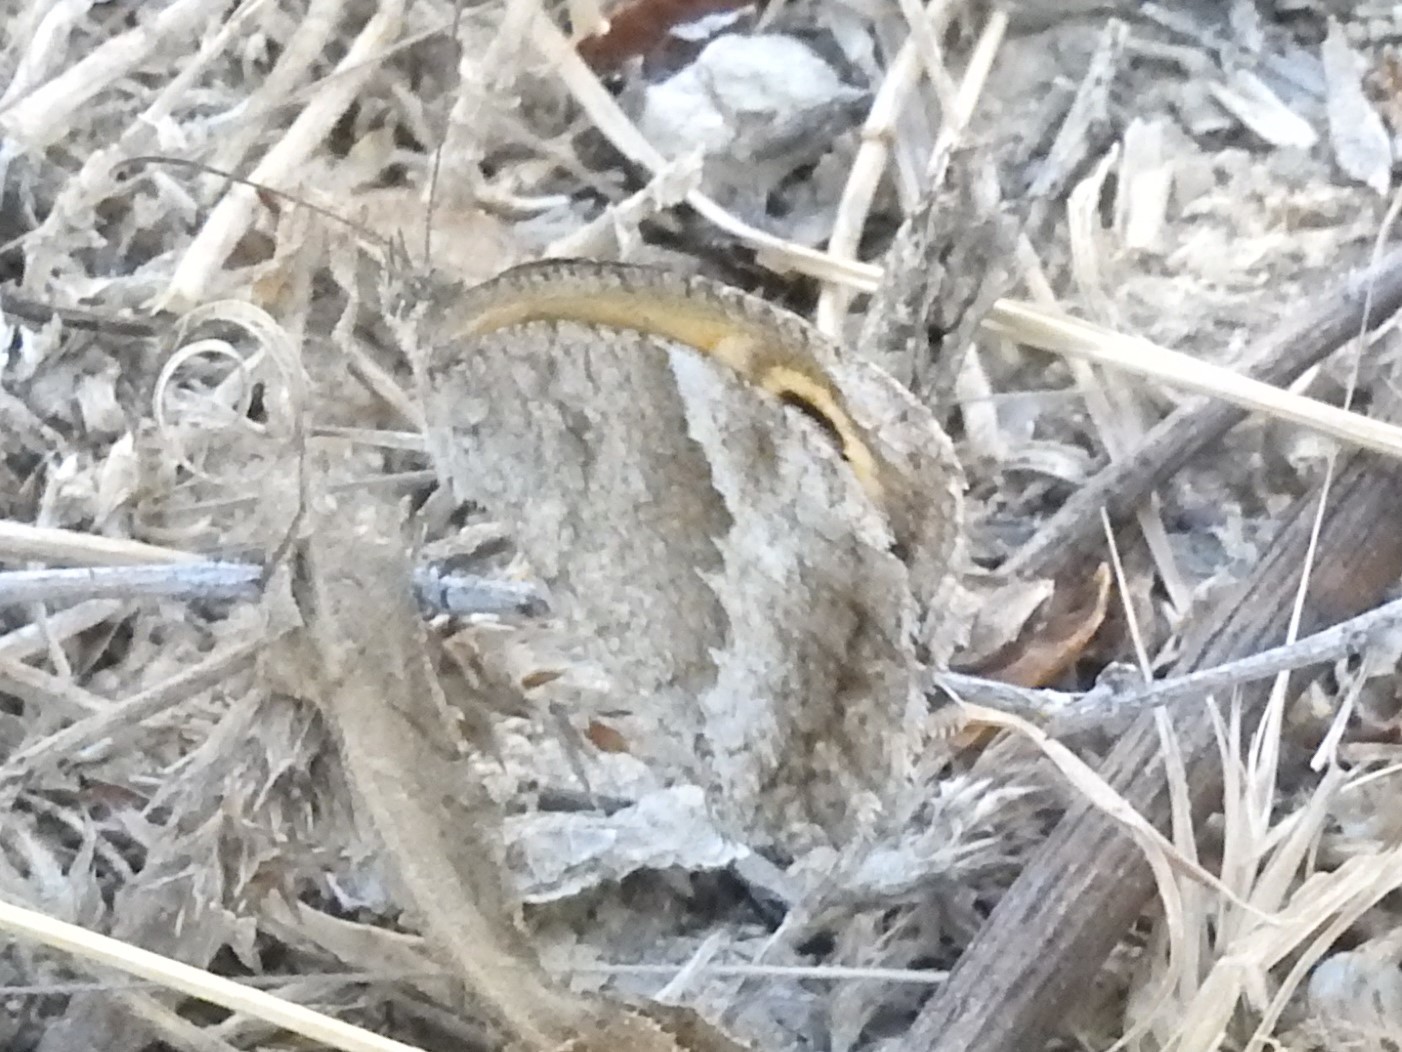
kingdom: Animalia
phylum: Arthropoda
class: Insecta
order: Lepidoptera
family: Nymphalidae
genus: Pyronia
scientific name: Pyronia cecilia
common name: Southern gatekeeper
